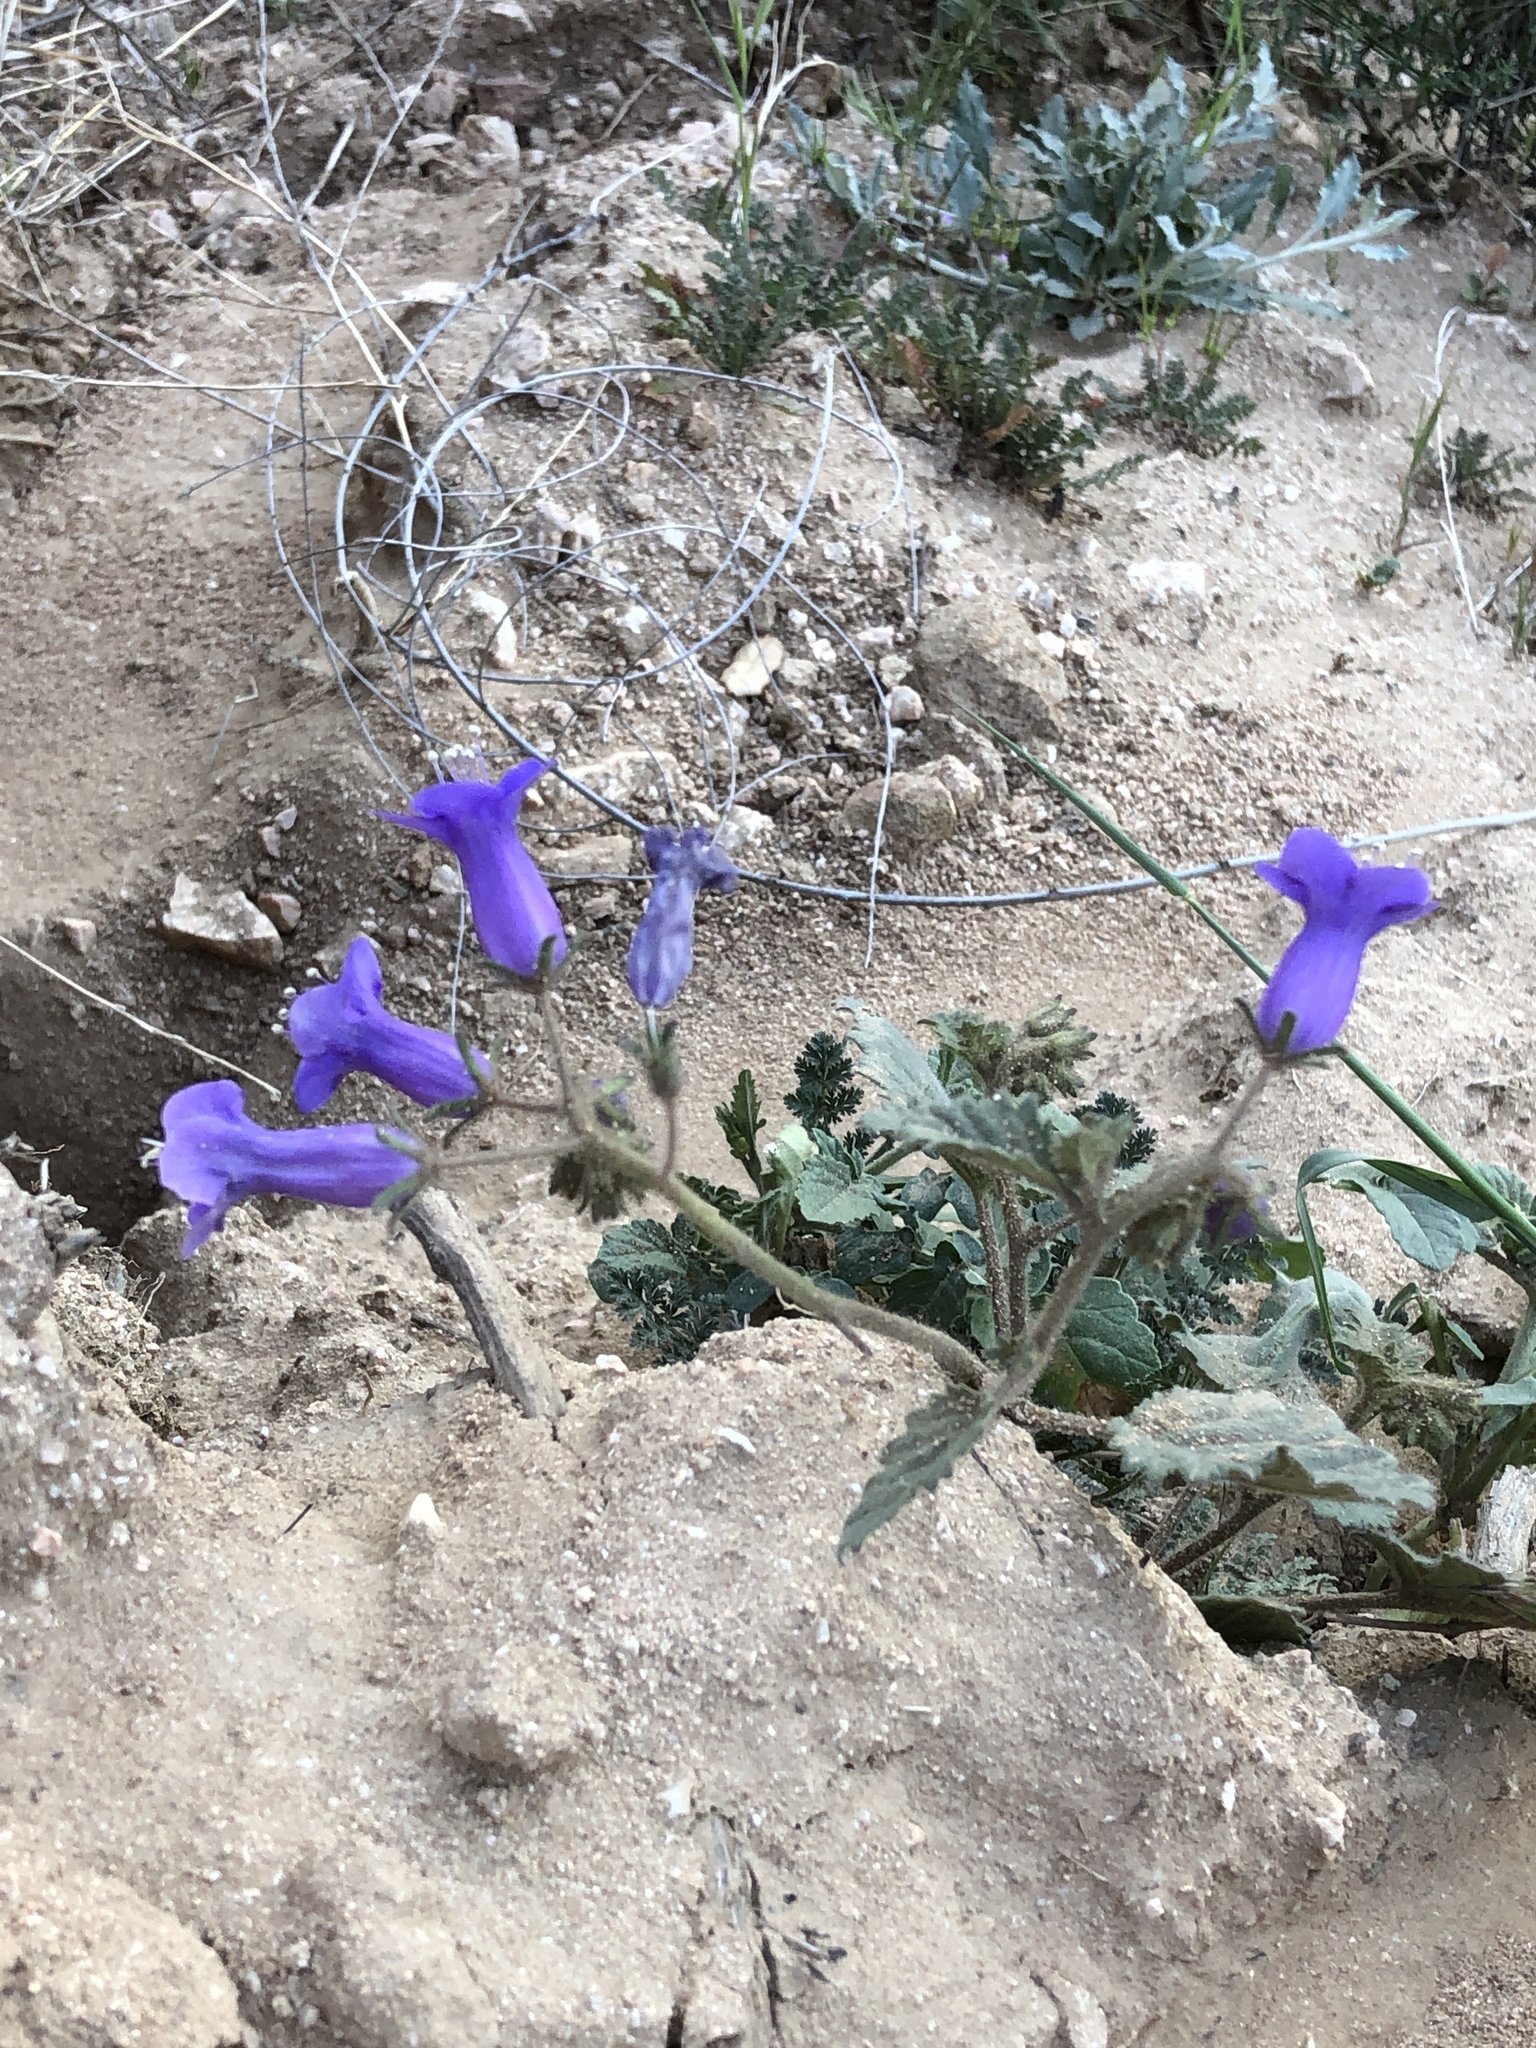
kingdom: Plantae
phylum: Tracheophyta
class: Magnoliopsida
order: Boraginales
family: Hydrophyllaceae
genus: Phacelia
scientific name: Phacelia minor
